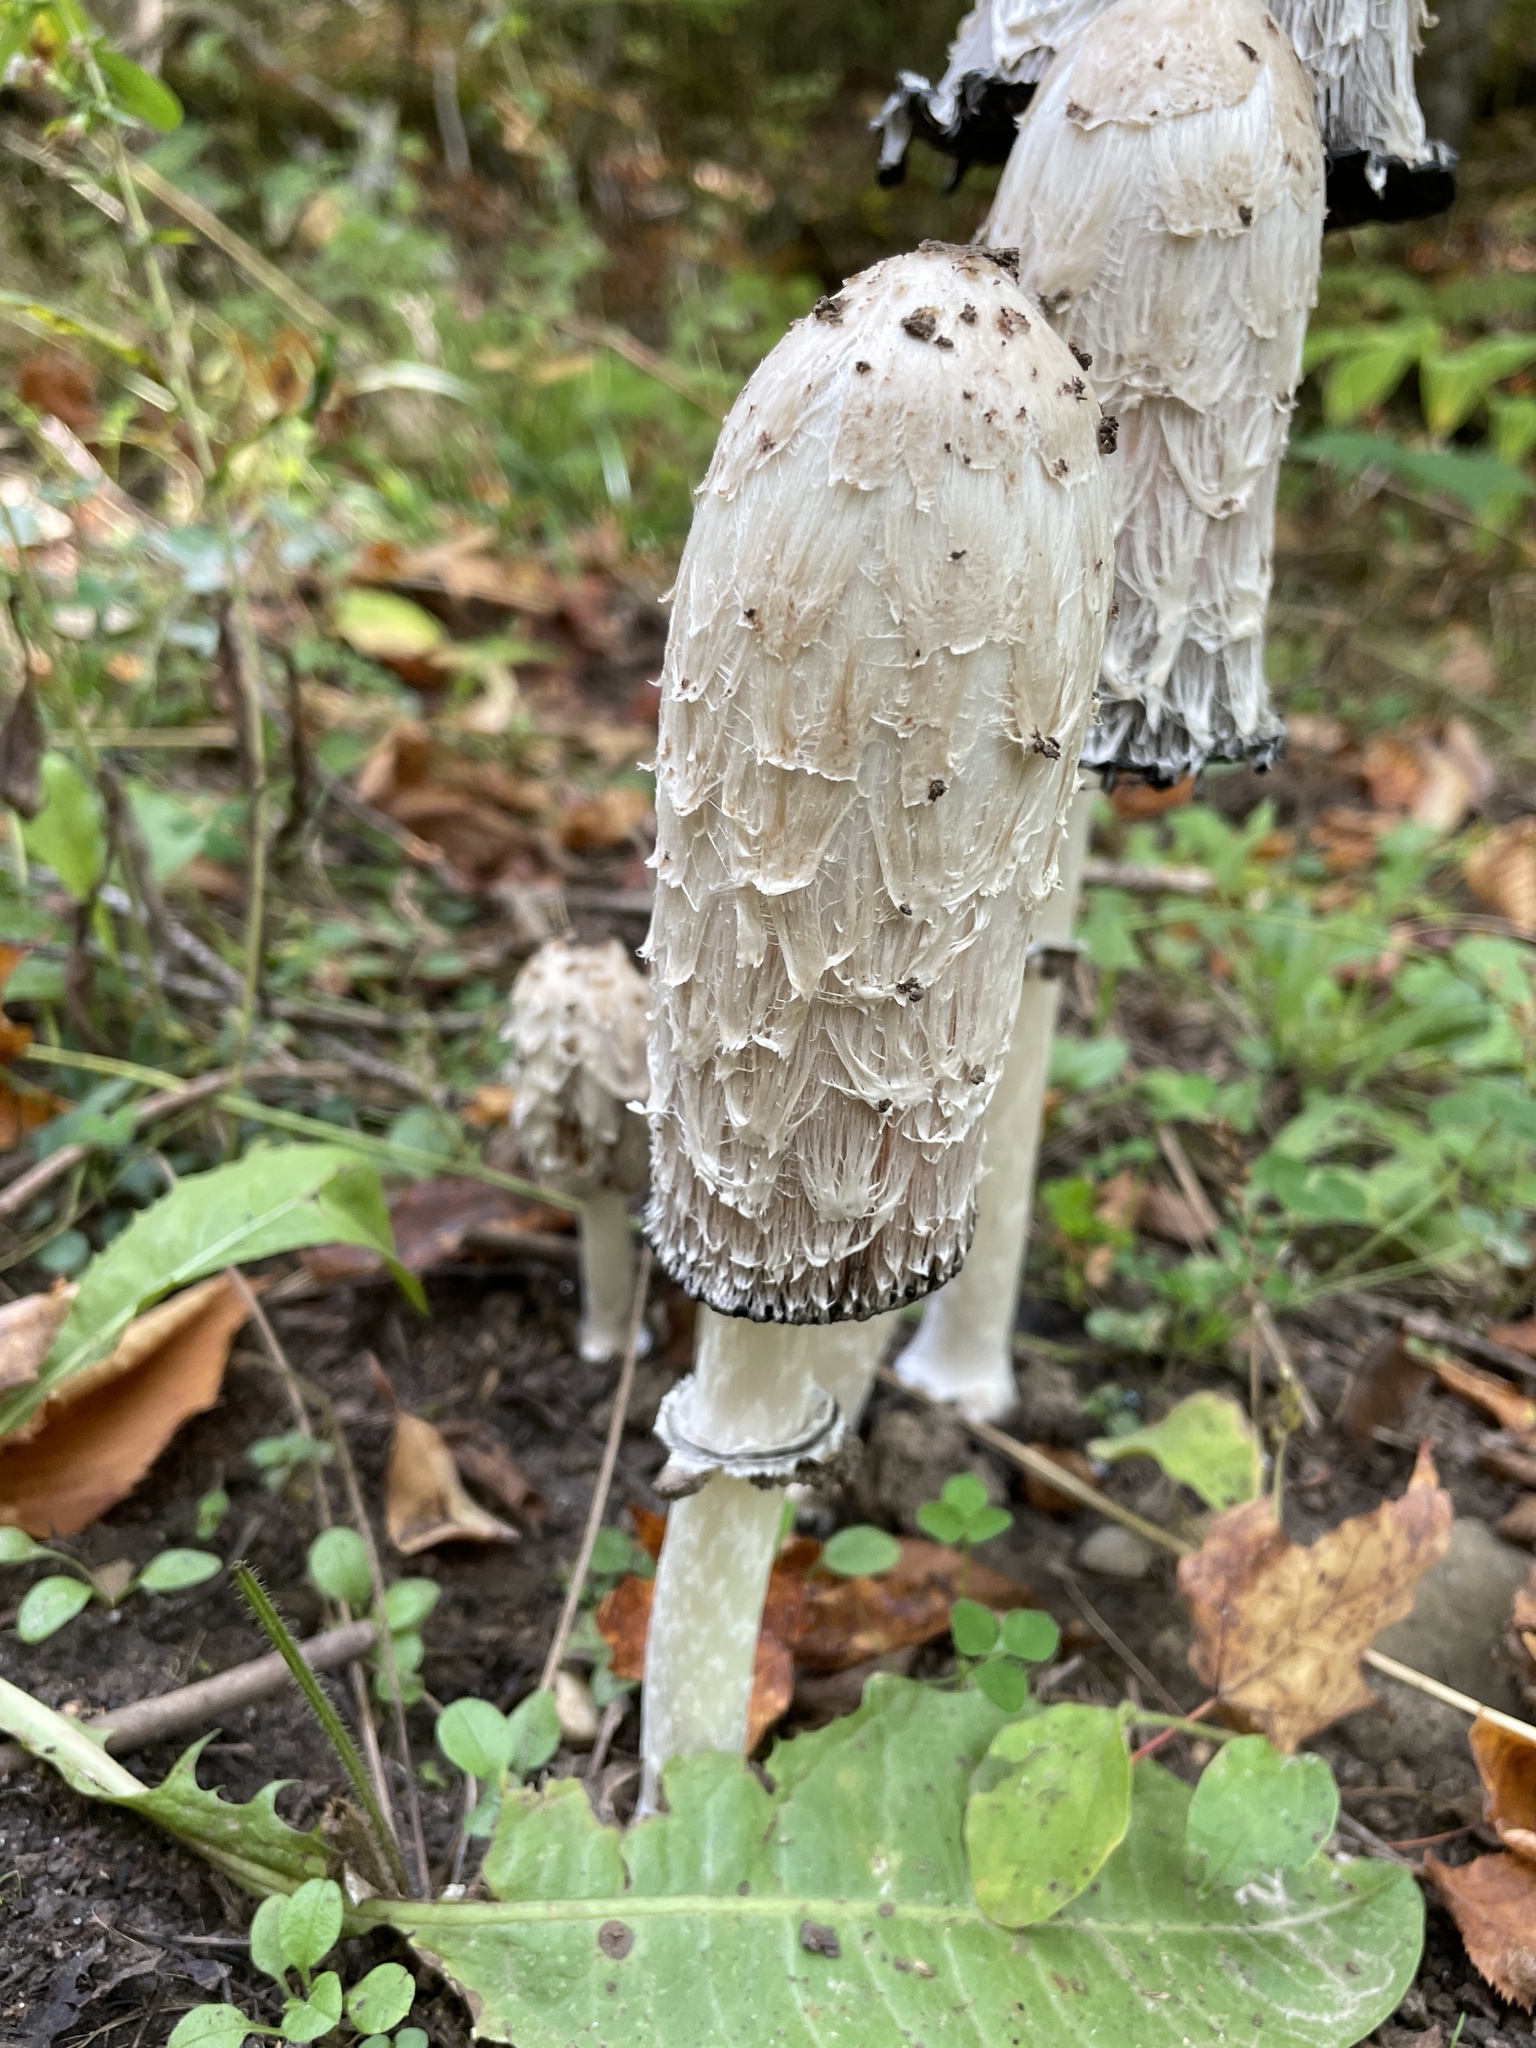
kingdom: Fungi
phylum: Basidiomycota
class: Agaricomycetes
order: Agaricales
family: Agaricaceae
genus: Coprinus
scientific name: Coprinus comatus
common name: Lawyer's wig
